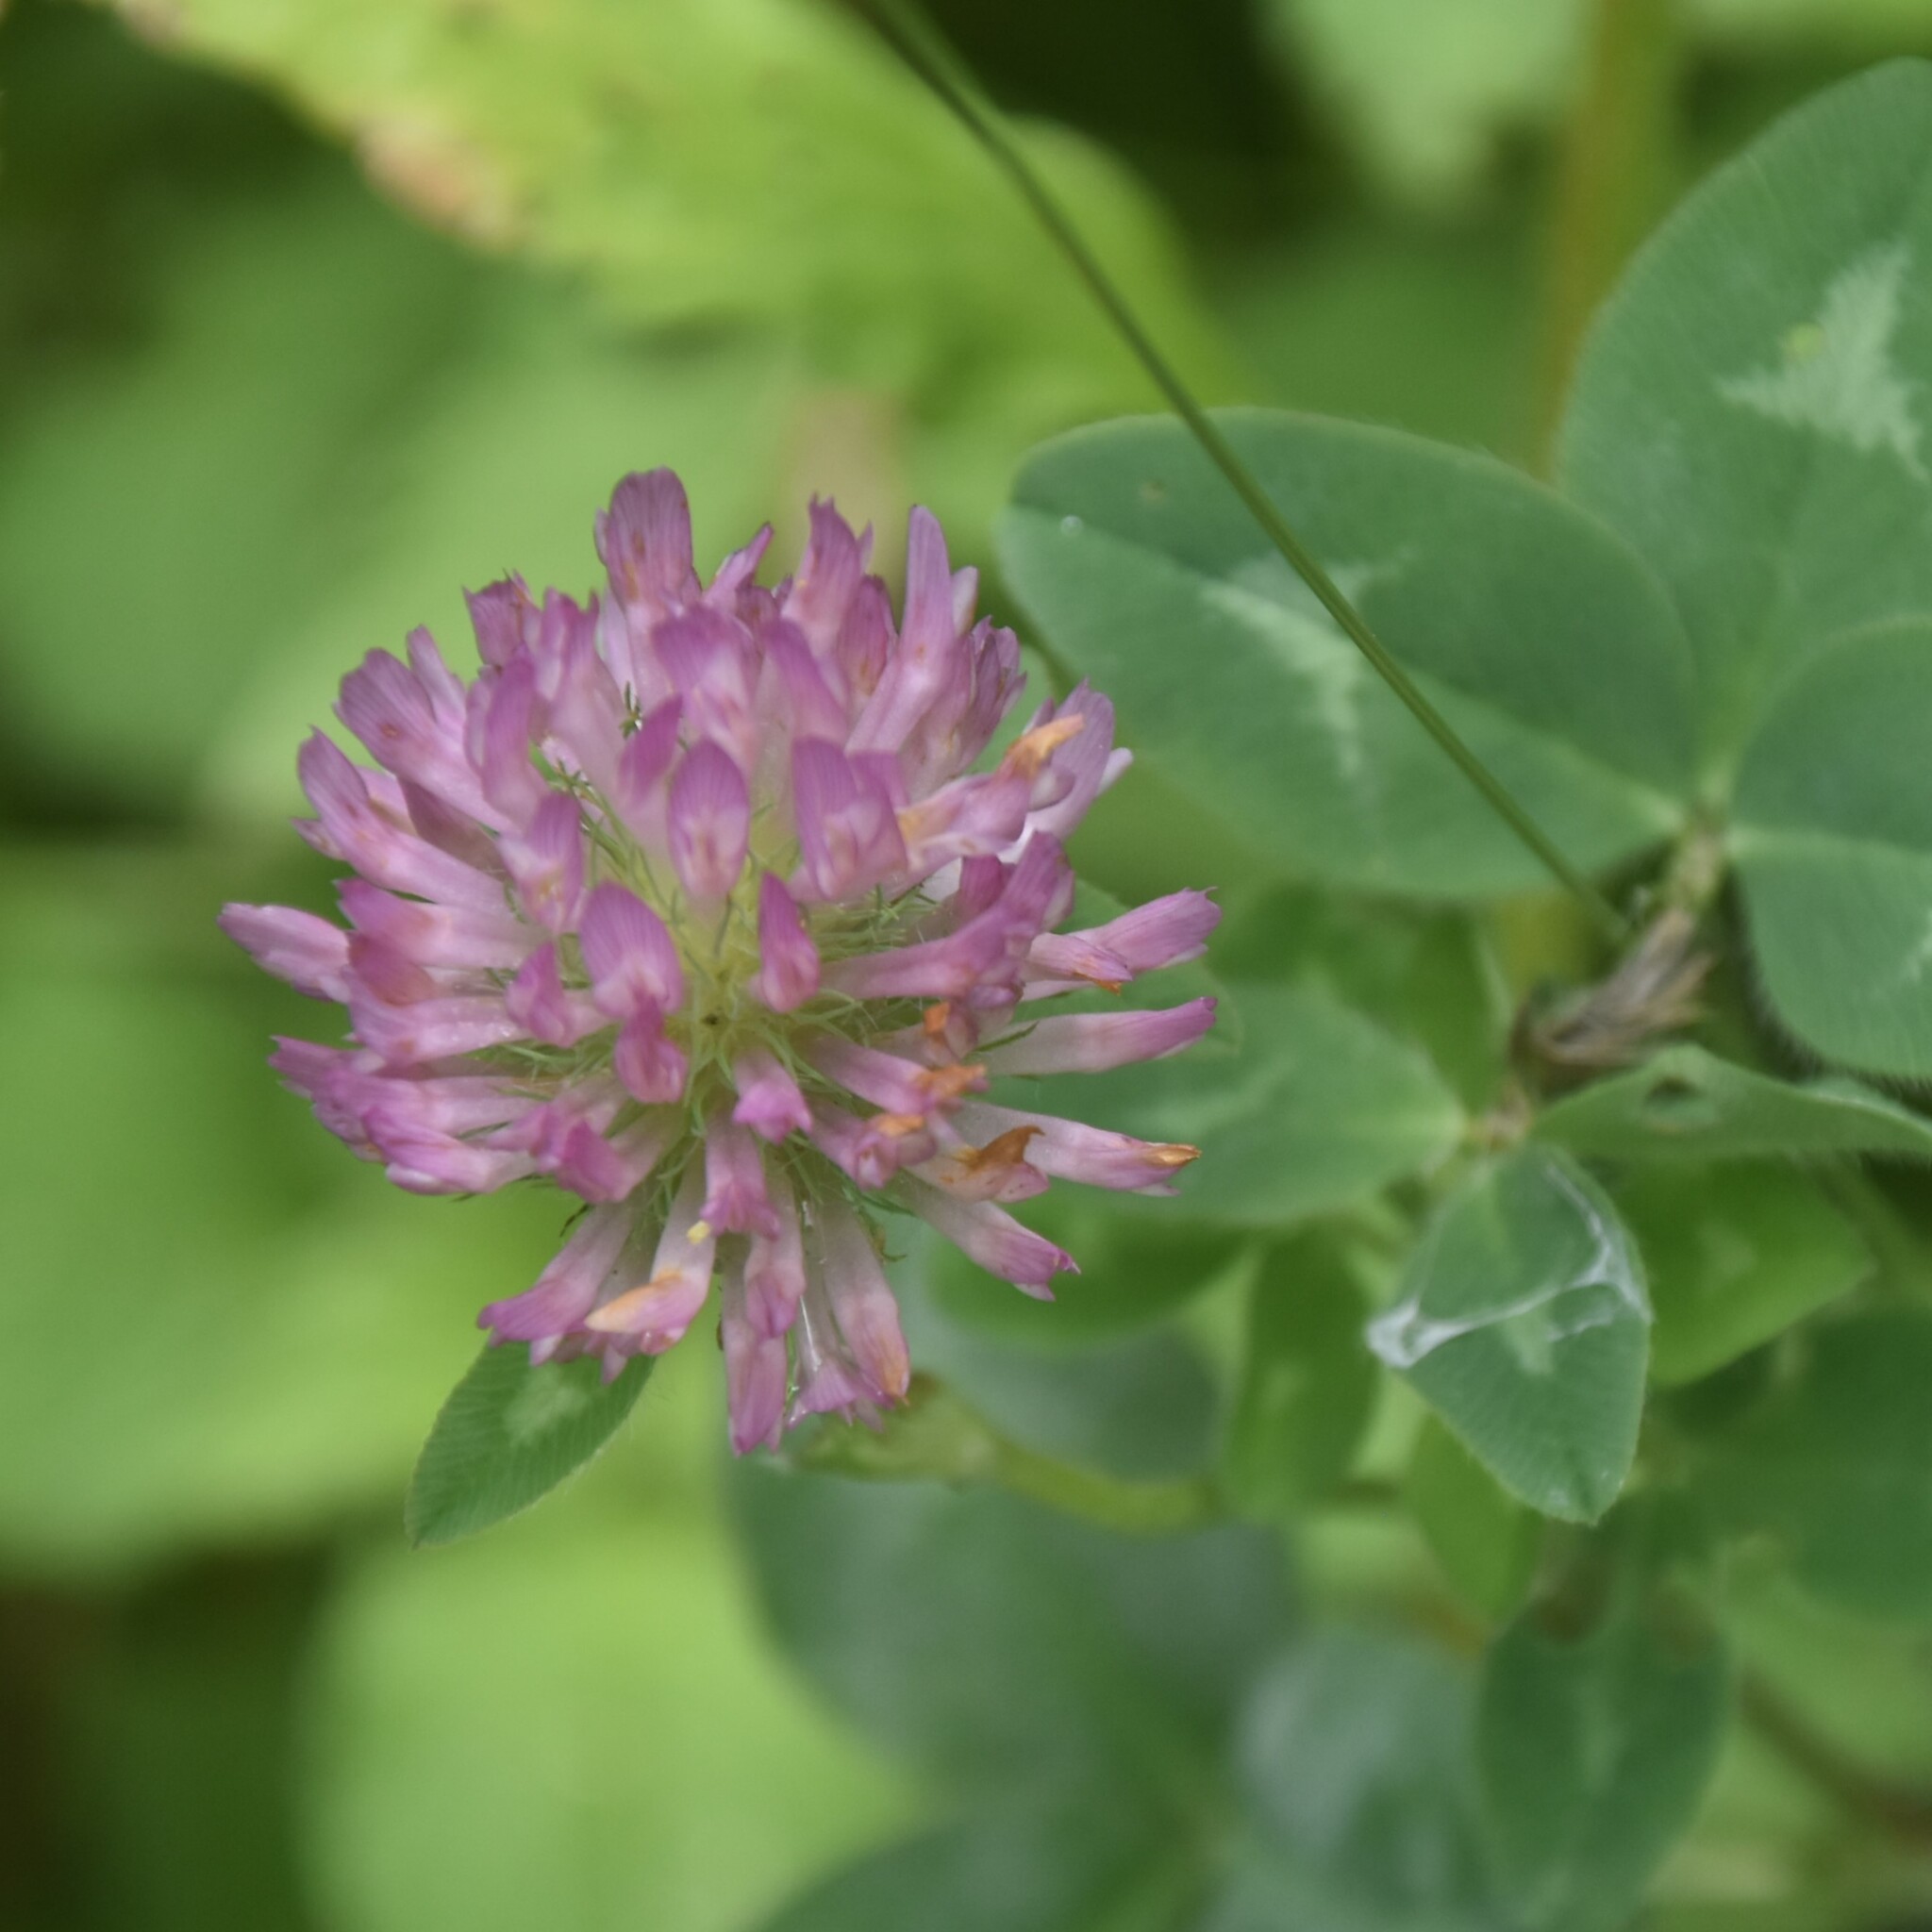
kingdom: Plantae
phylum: Tracheophyta
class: Magnoliopsida
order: Fabales
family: Fabaceae
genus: Trifolium
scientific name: Trifolium pratense
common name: Red clover
